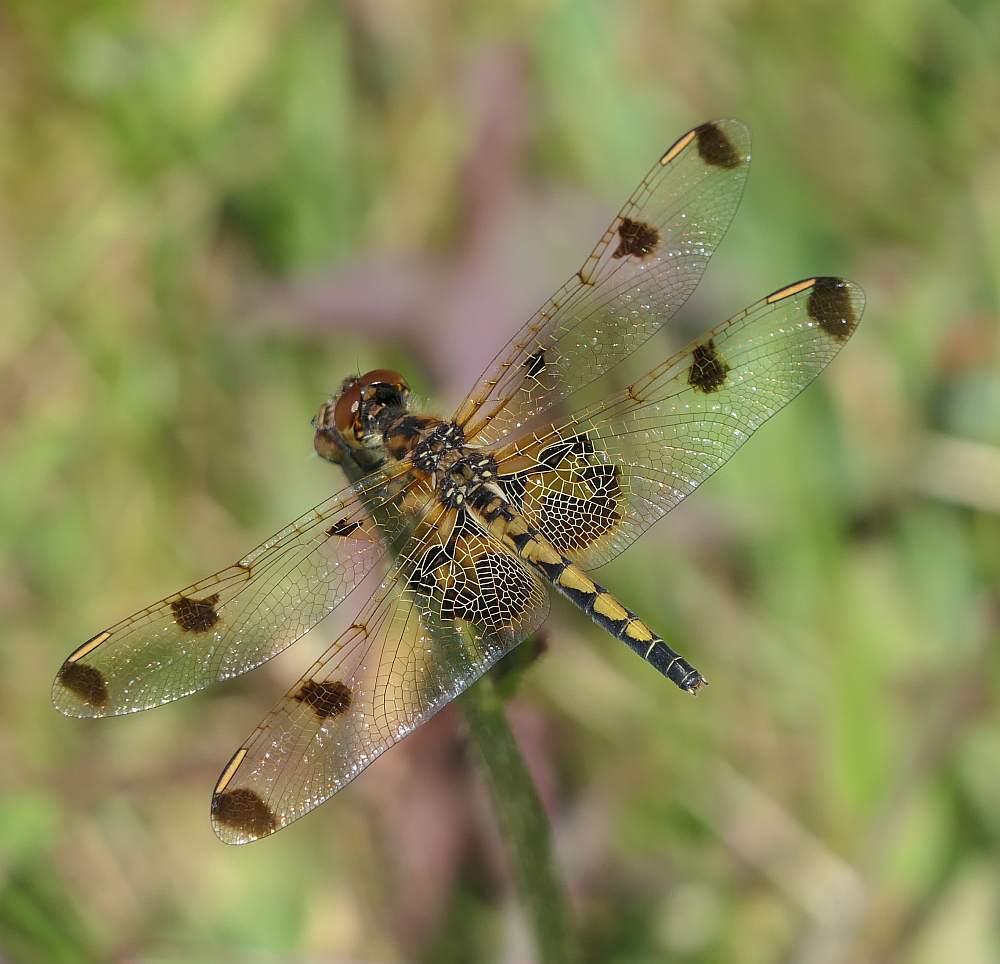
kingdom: Animalia
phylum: Arthropoda
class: Insecta
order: Odonata
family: Libellulidae
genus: Celithemis
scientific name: Celithemis elisa
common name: Calico pennant
